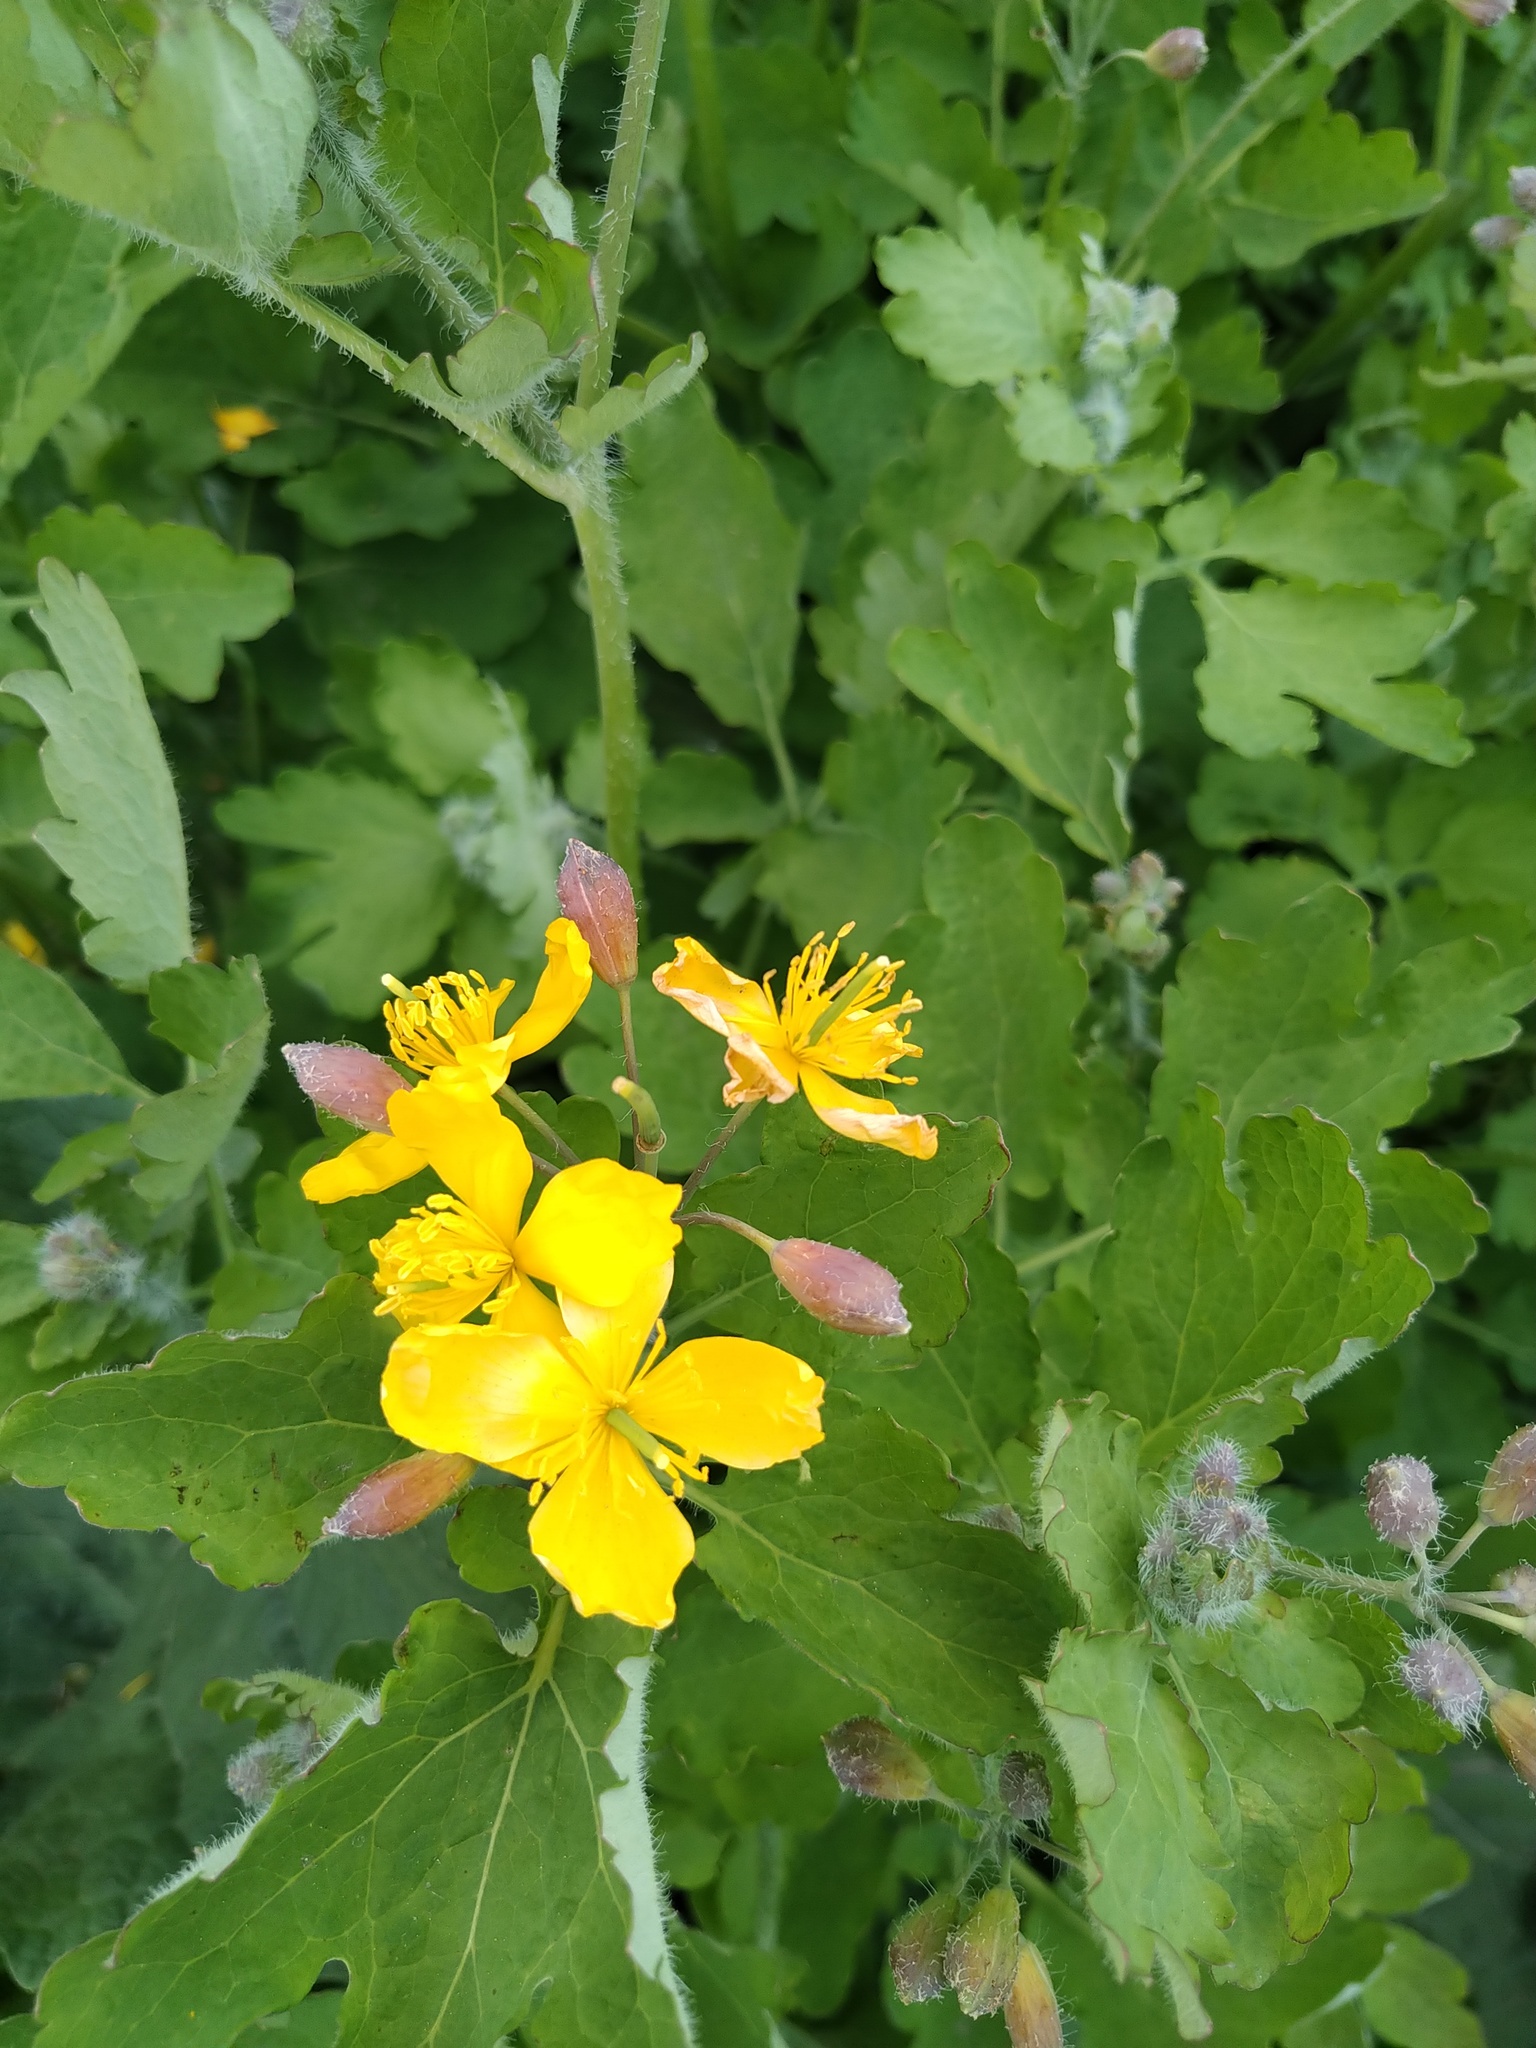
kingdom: Plantae
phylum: Tracheophyta
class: Magnoliopsida
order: Ranunculales
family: Papaveraceae
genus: Chelidonium
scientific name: Chelidonium majus
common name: Greater celandine
